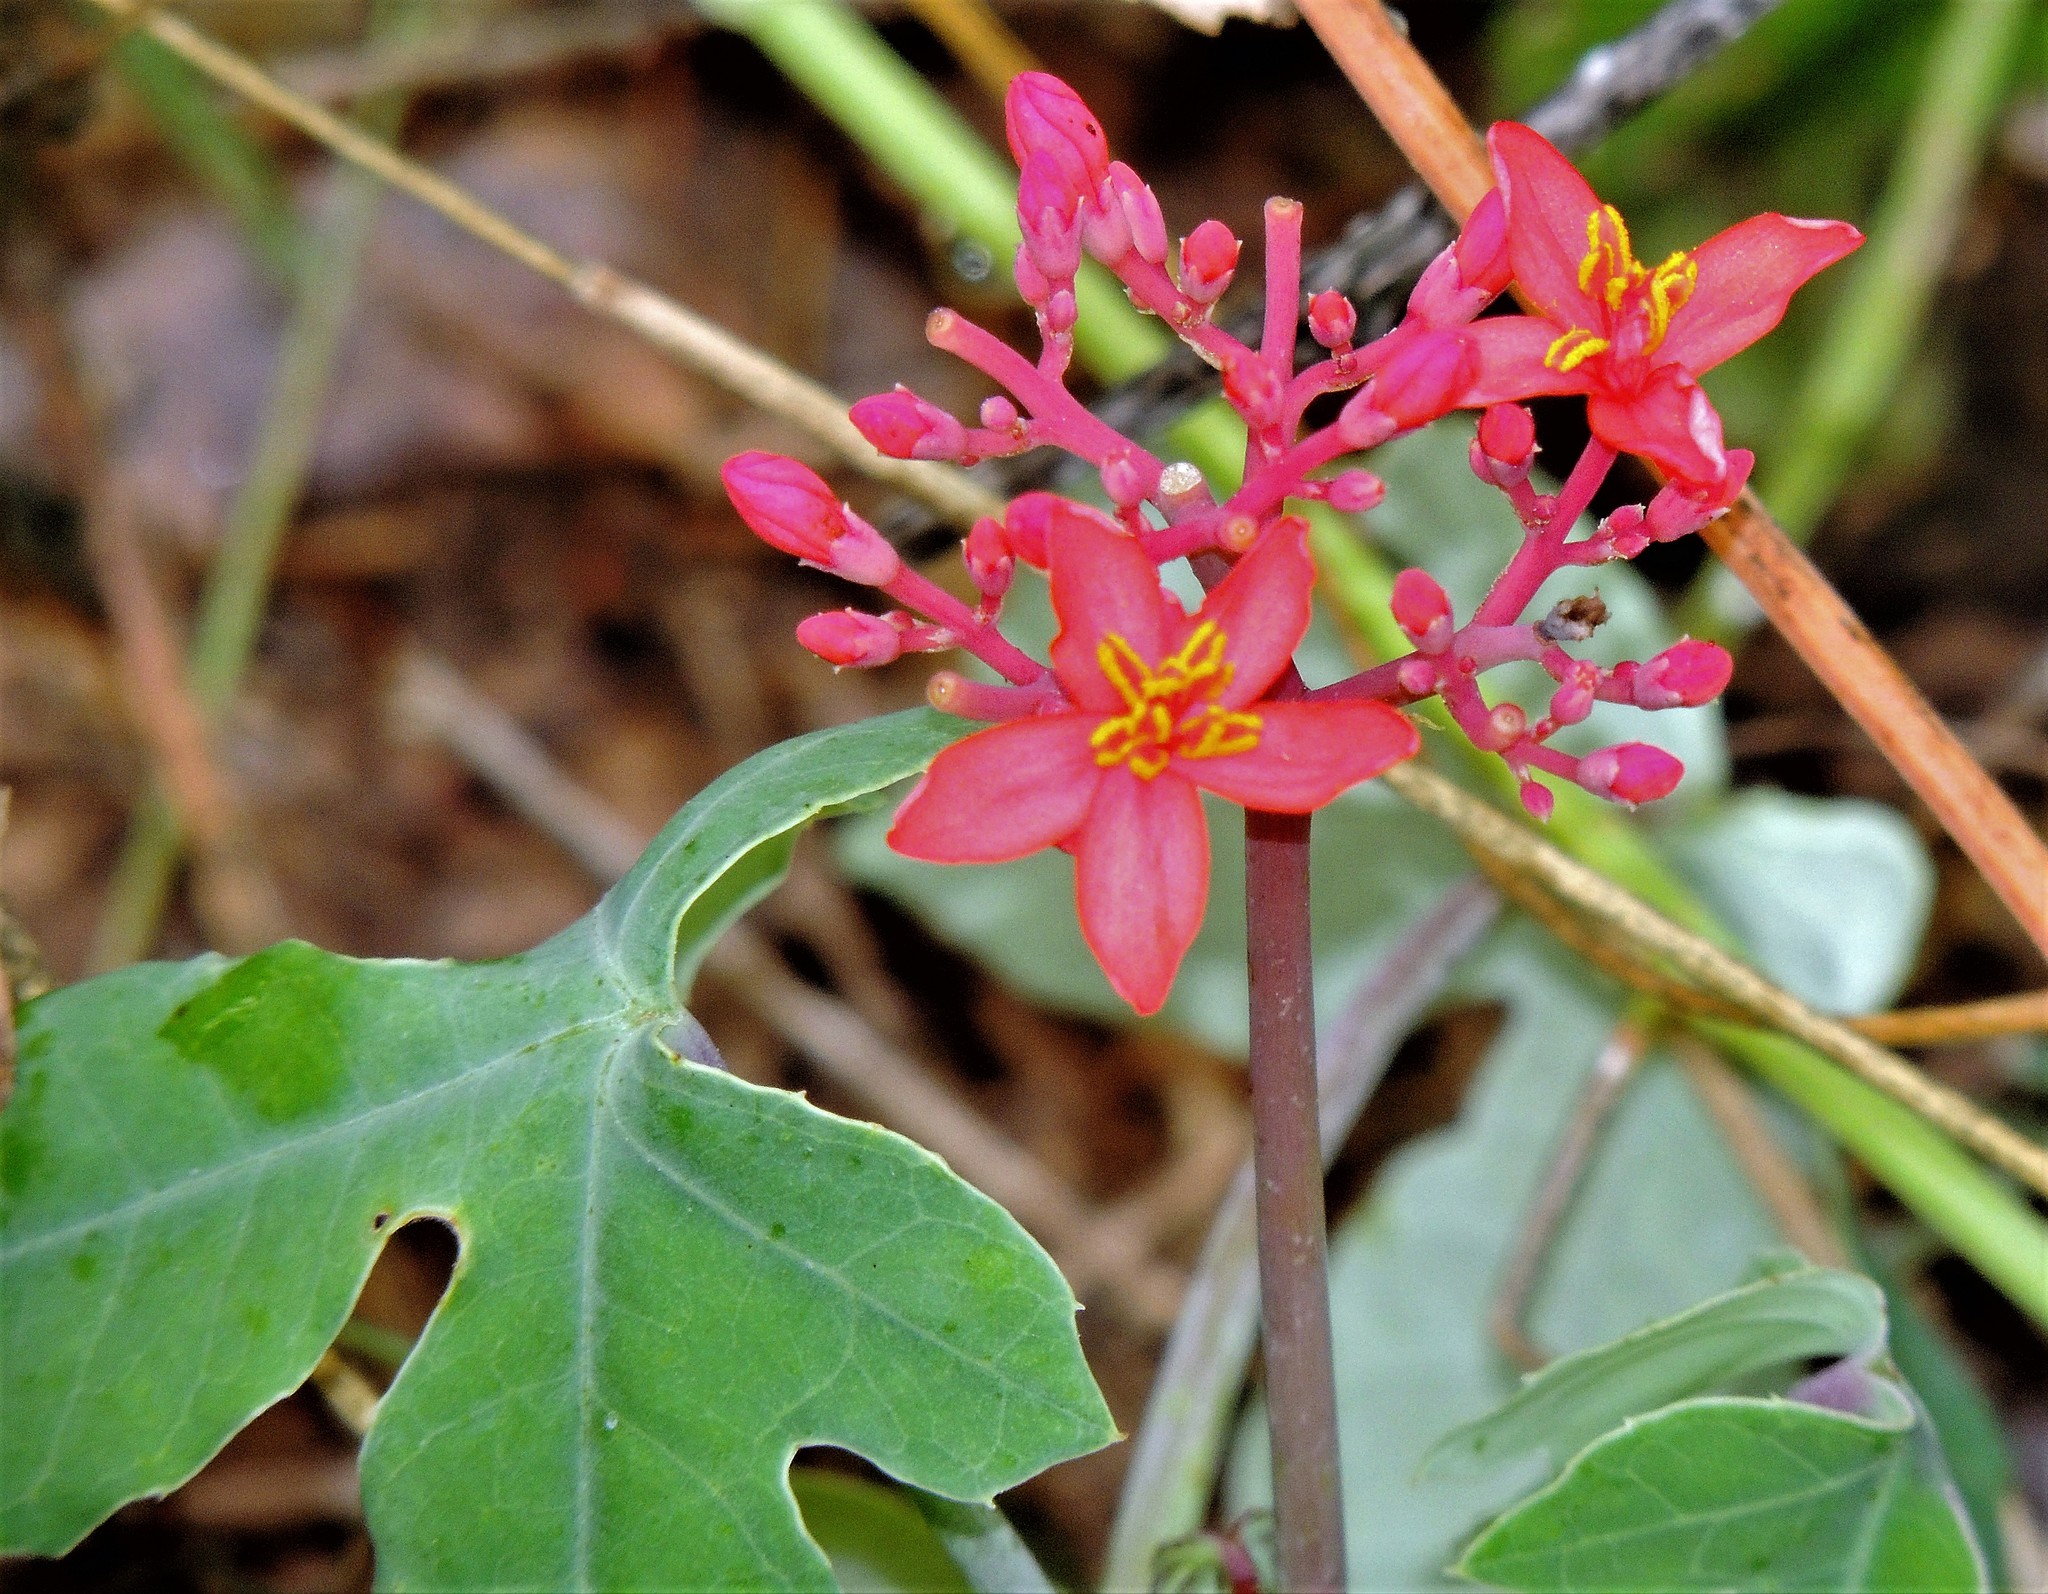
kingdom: Plantae
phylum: Tracheophyta
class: Magnoliopsida
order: Malpighiales
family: Euphorbiaceae
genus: Jatropha
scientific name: Jatropha grossidentata
